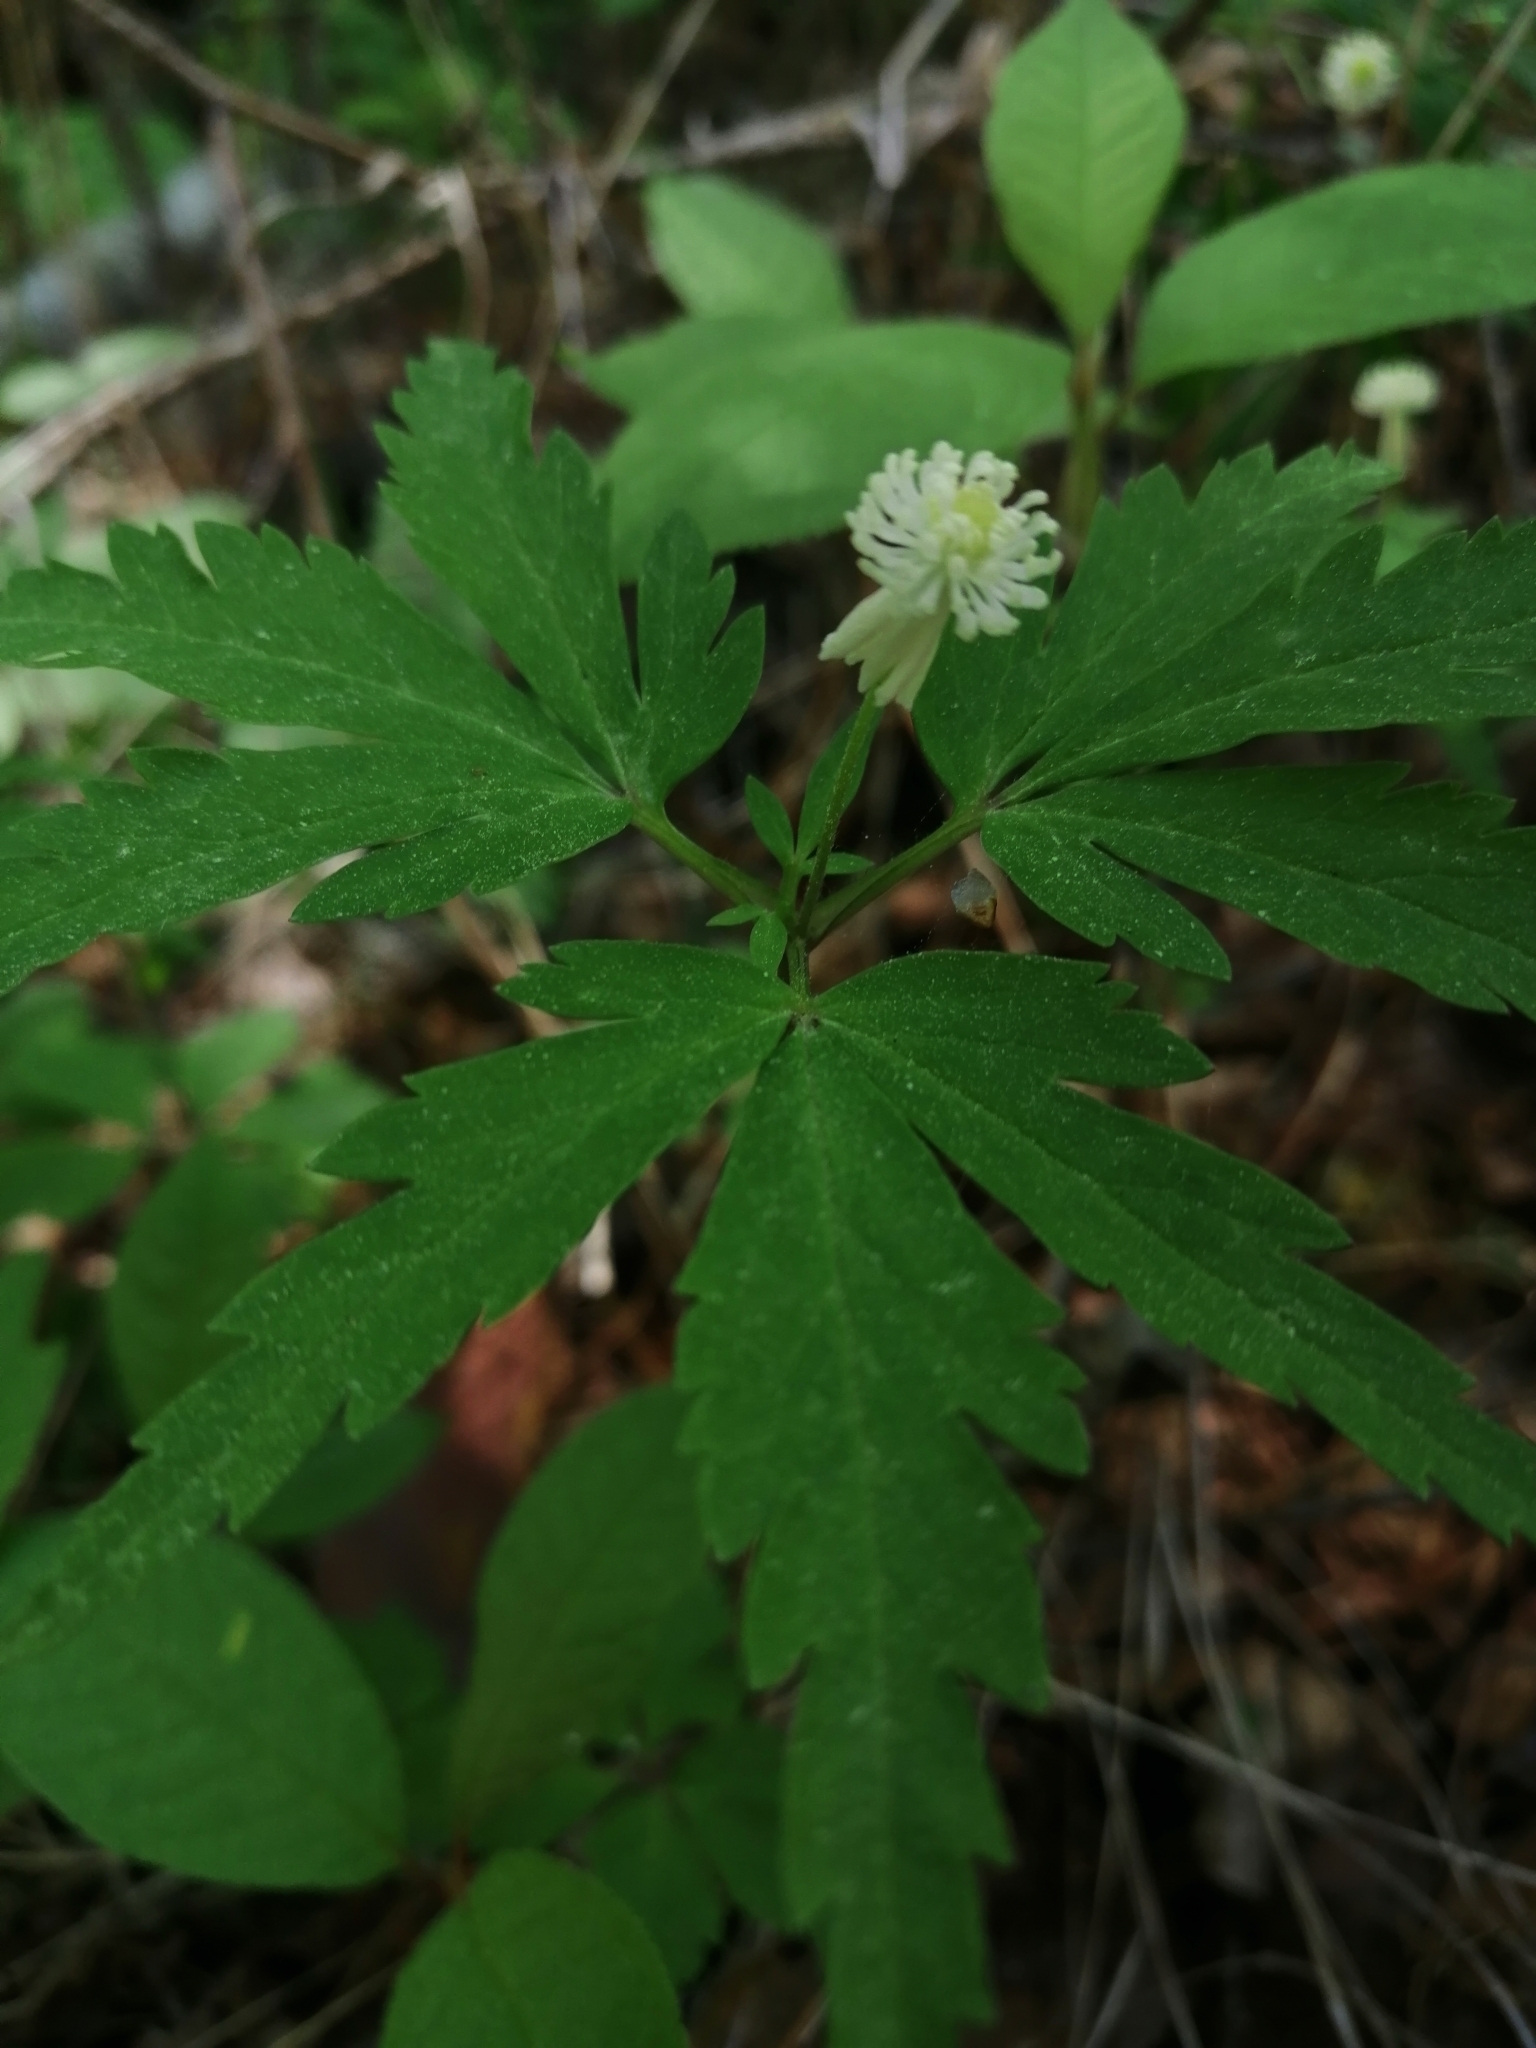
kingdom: Plantae
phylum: Tracheophyta
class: Magnoliopsida
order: Ranunculales
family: Ranunculaceae
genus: Anemone
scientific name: Anemone reflexa
